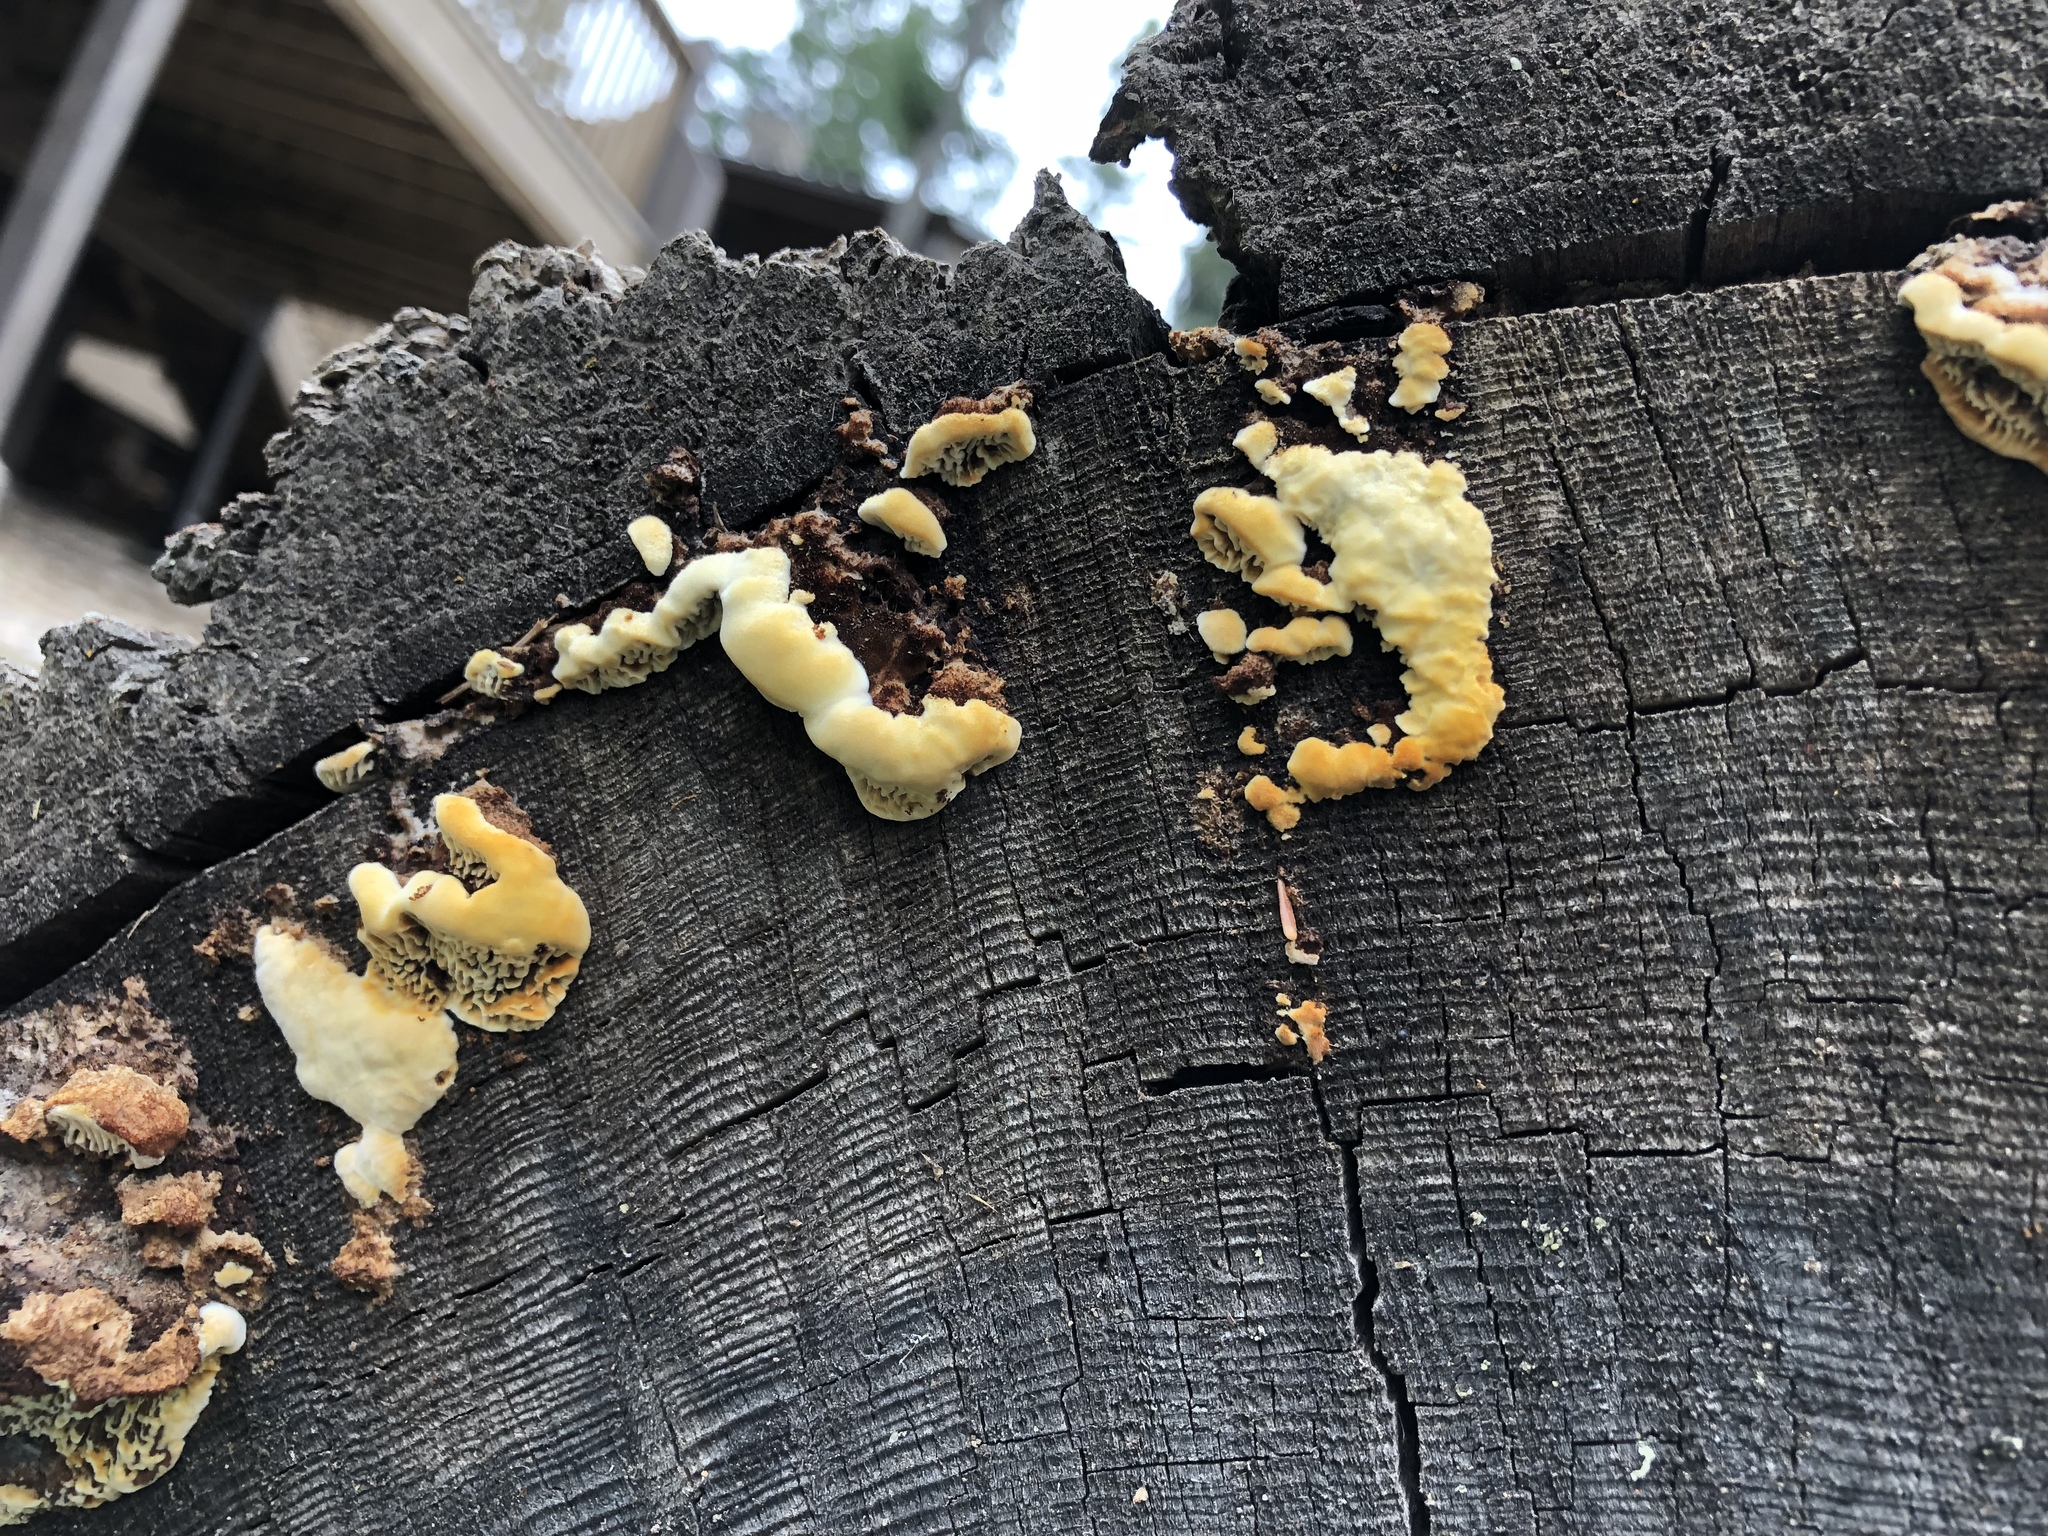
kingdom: Fungi
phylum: Basidiomycota
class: Agaricomycetes
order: Gloeophyllales
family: Gloeophyllaceae
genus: Gloeophyllum
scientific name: Gloeophyllum sepiarium
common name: Conifer mazegill
